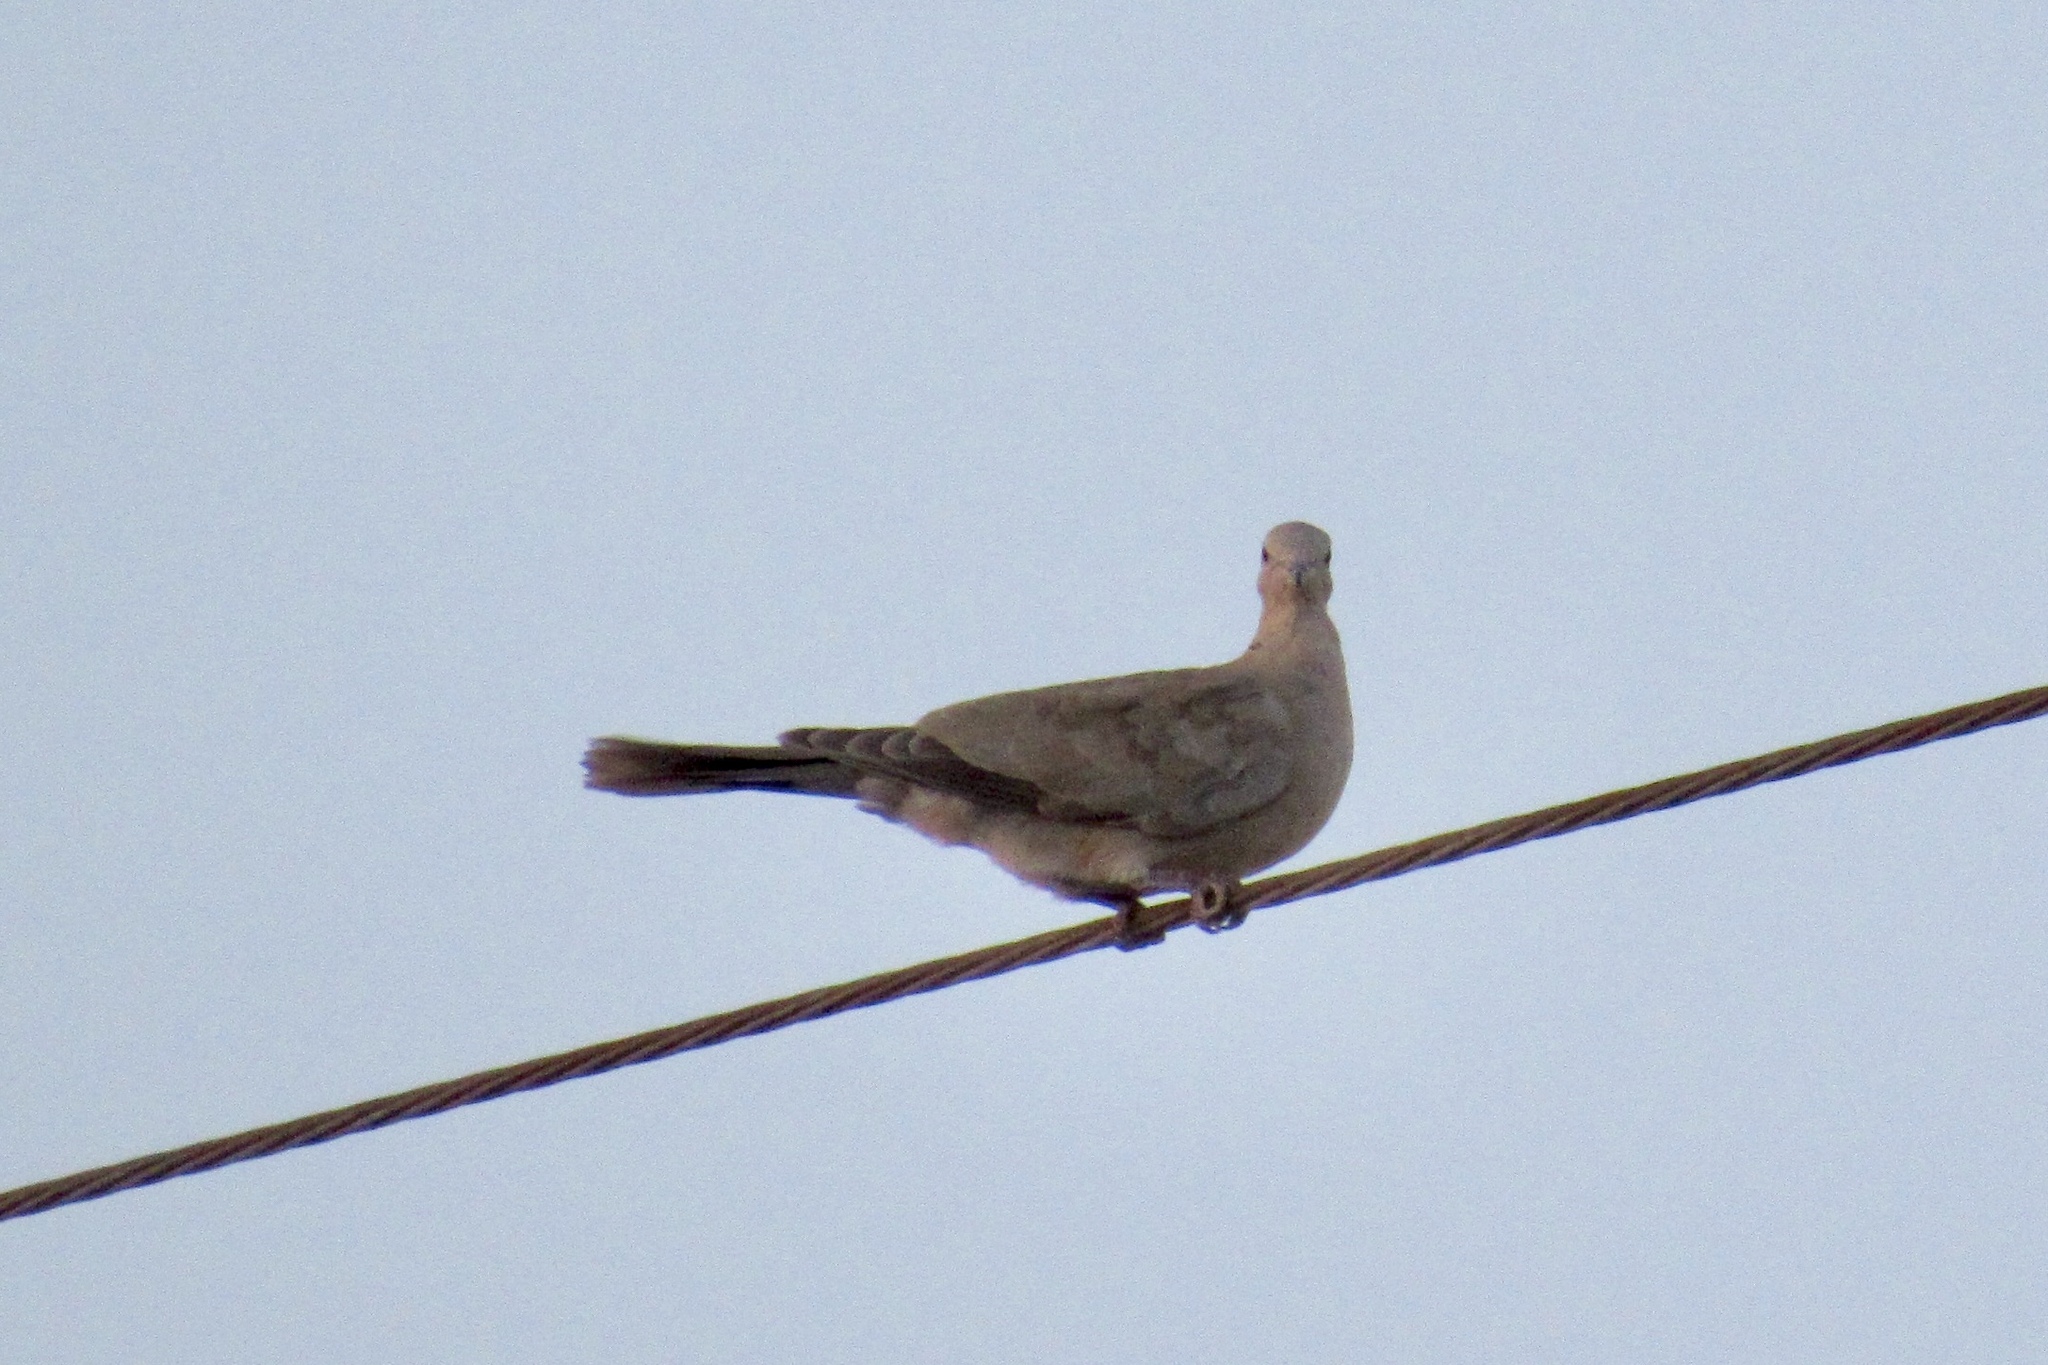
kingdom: Animalia
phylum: Chordata
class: Aves
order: Columbiformes
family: Columbidae
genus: Streptopelia
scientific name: Streptopelia decaocto
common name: Eurasian collared dove
